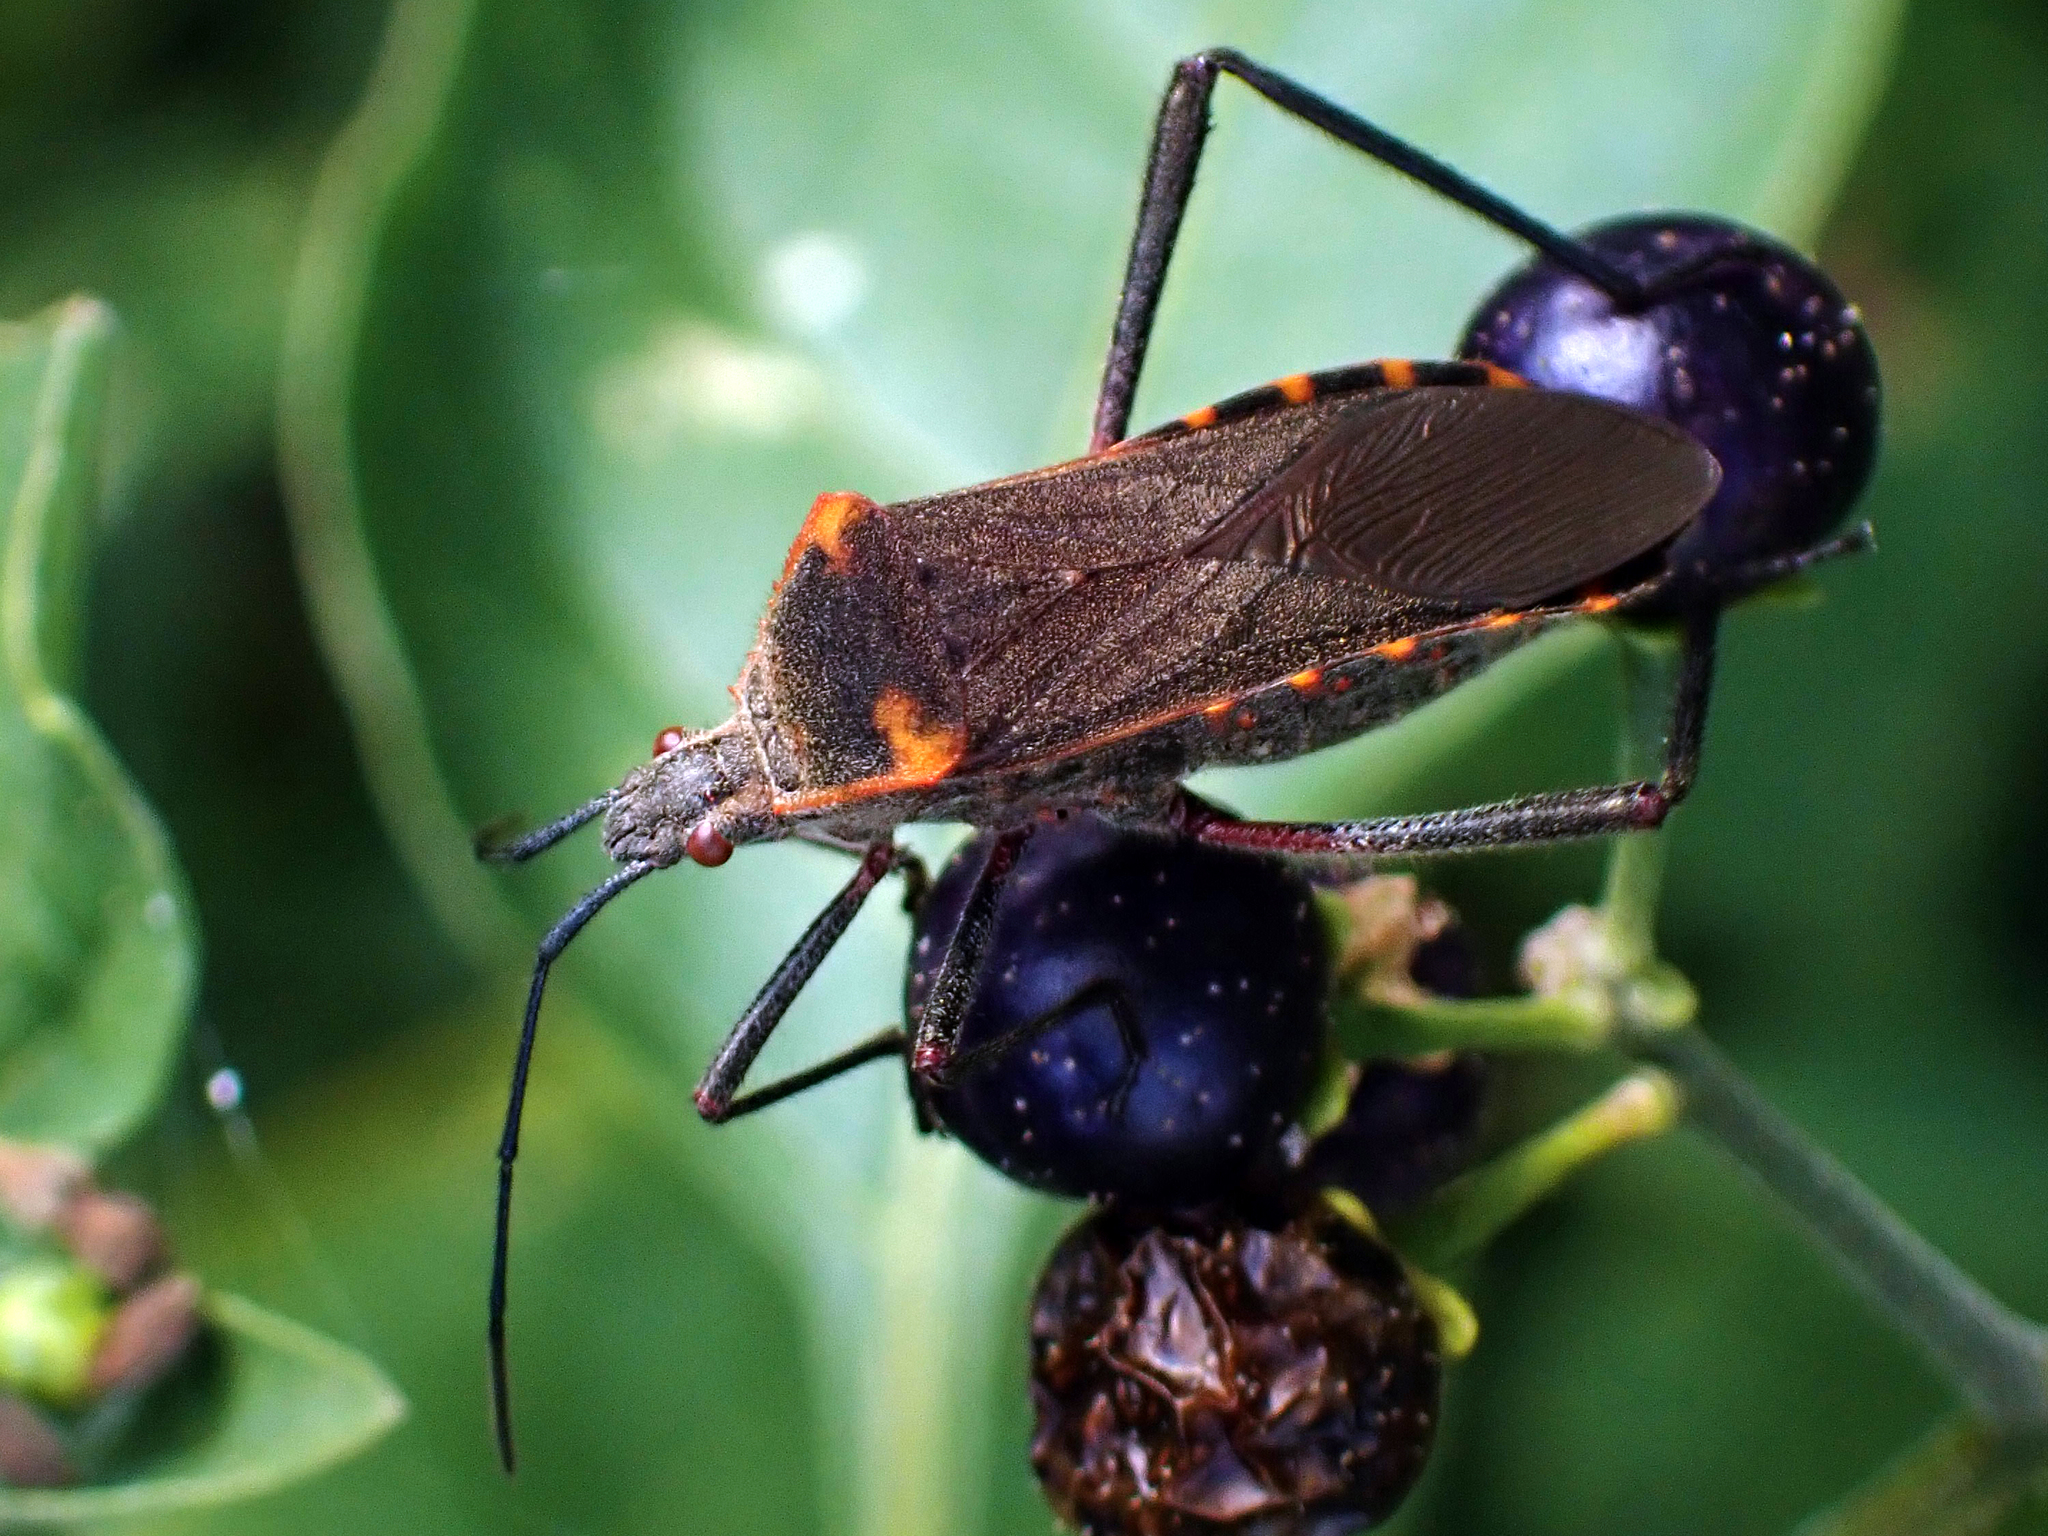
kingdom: Animalia
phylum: Arthropoda
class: Insecta
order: Hemiptera
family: Coreidae
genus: Phthiacnemia
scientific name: Phthiacnemia picta
